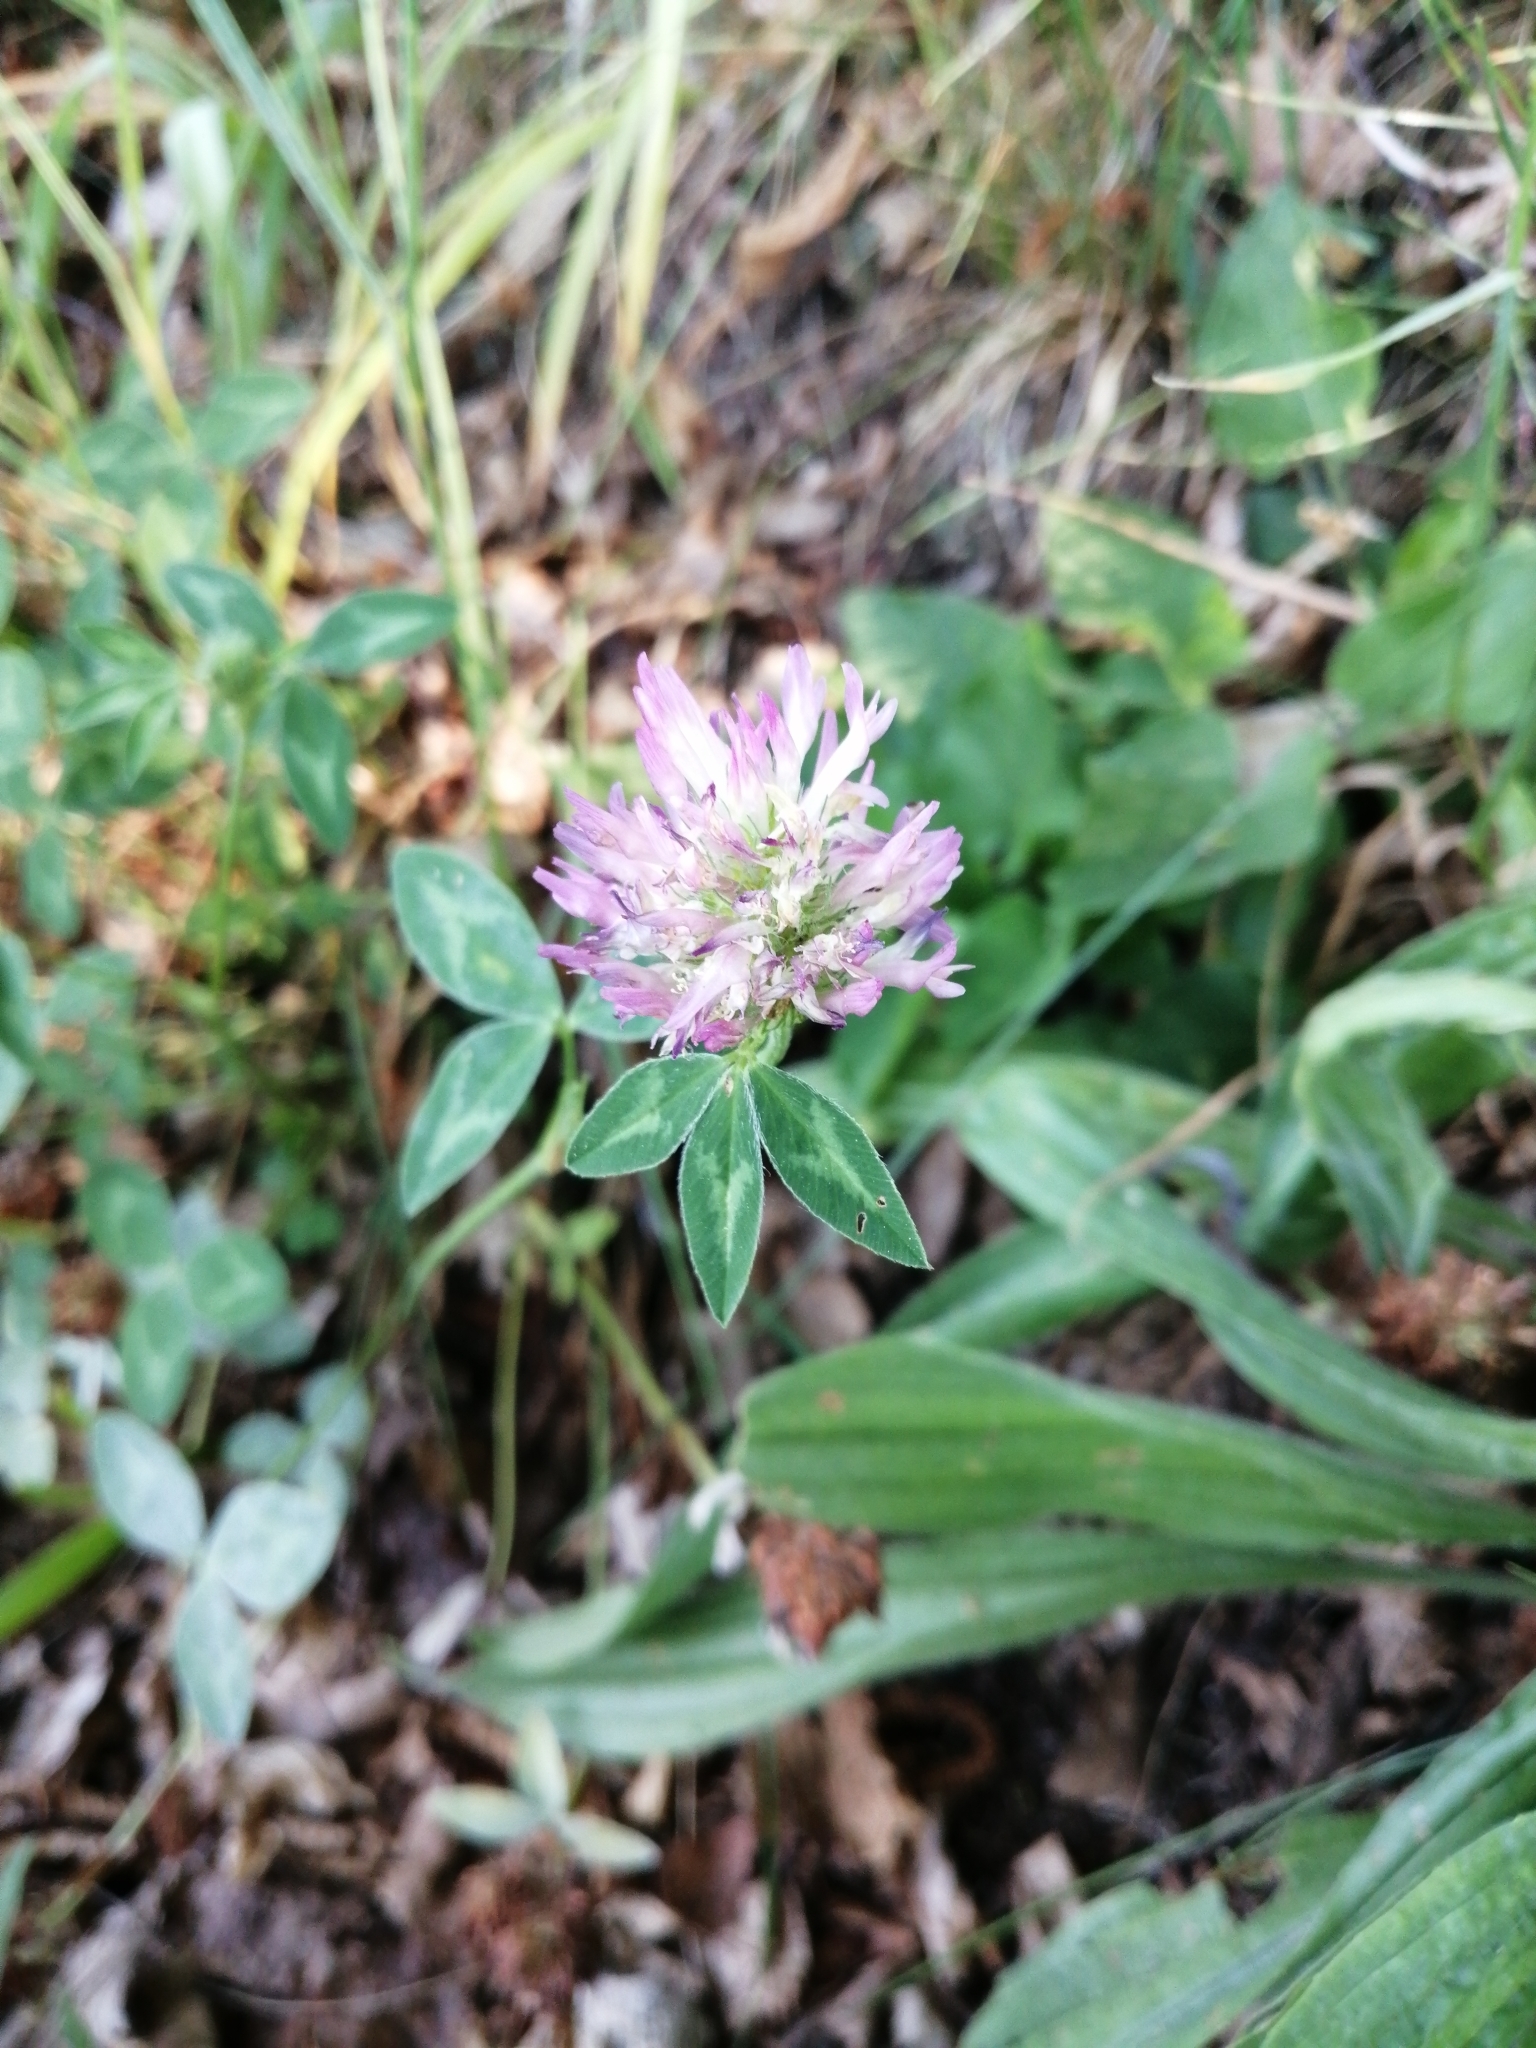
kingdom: Plantae
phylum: Tracheophyta
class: Magnoliopsida
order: Fabales
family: Fabaceae
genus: Trifolium
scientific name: Trifolium pratense
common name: Red clover
